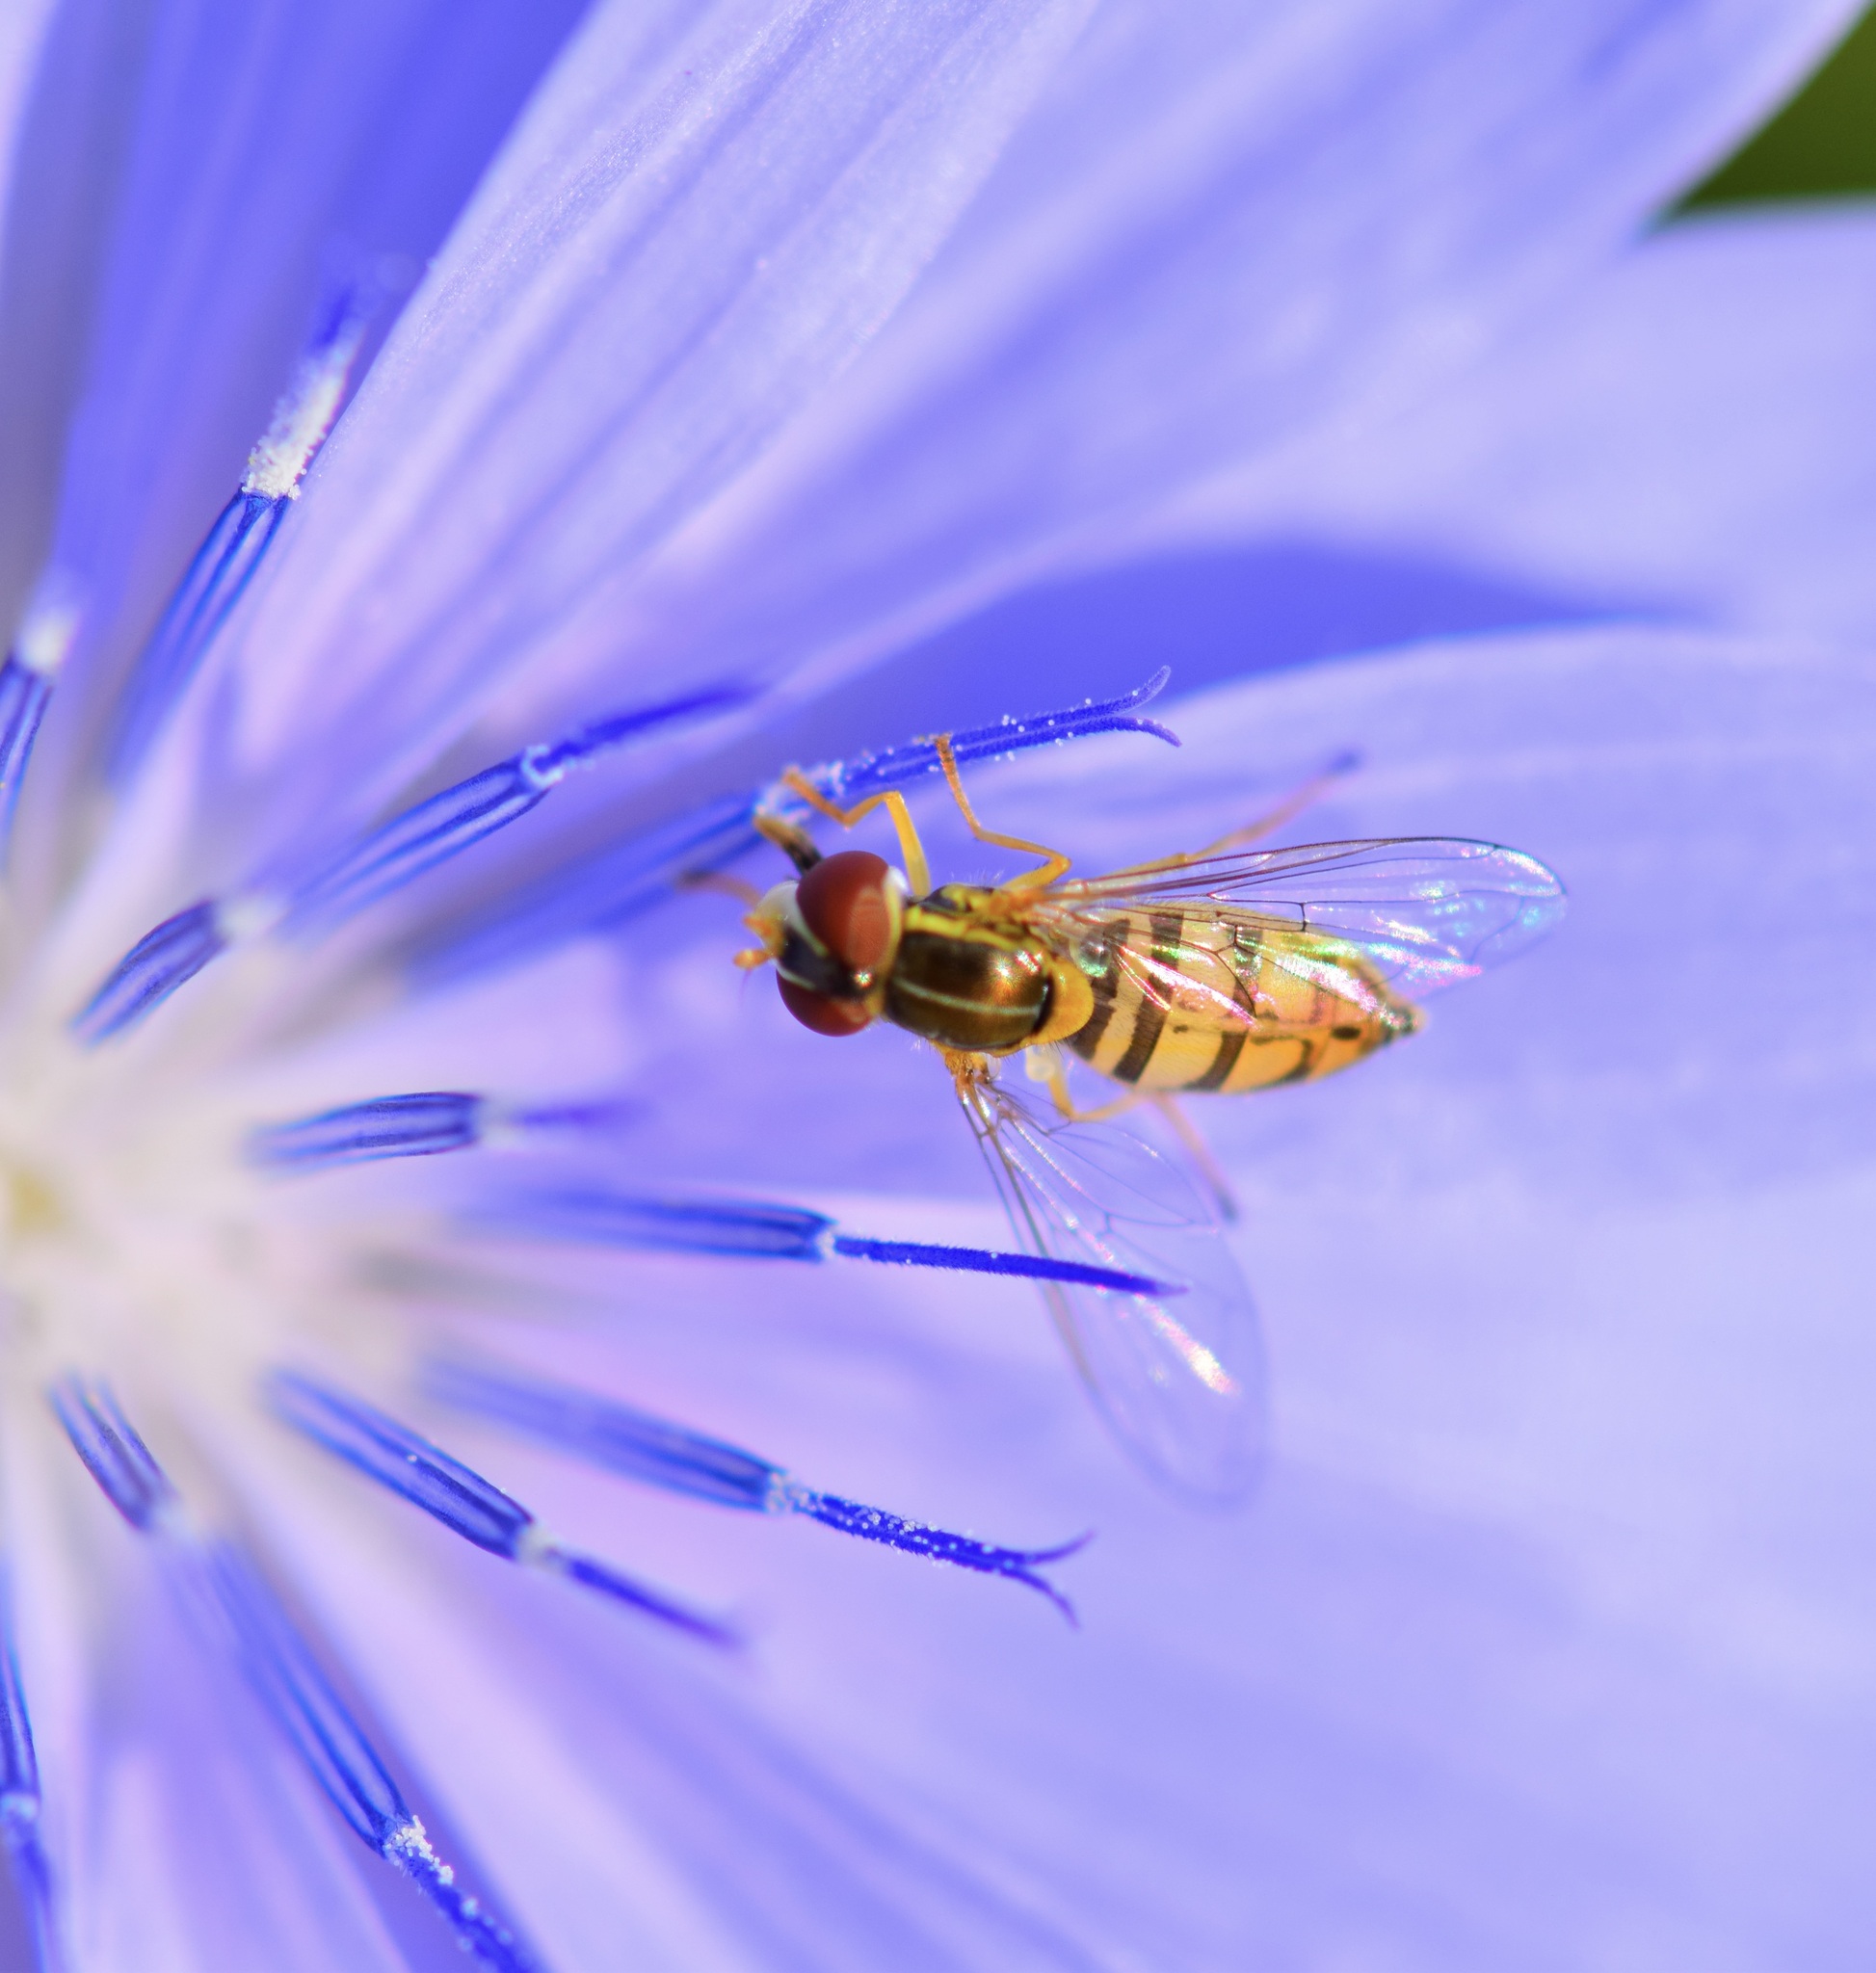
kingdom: Animalia
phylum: Arthropoda
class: Insecta
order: Diptera
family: Syrphidae
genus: Toxomerus
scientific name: Toxomerus marginatus
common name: Syrphid fly
